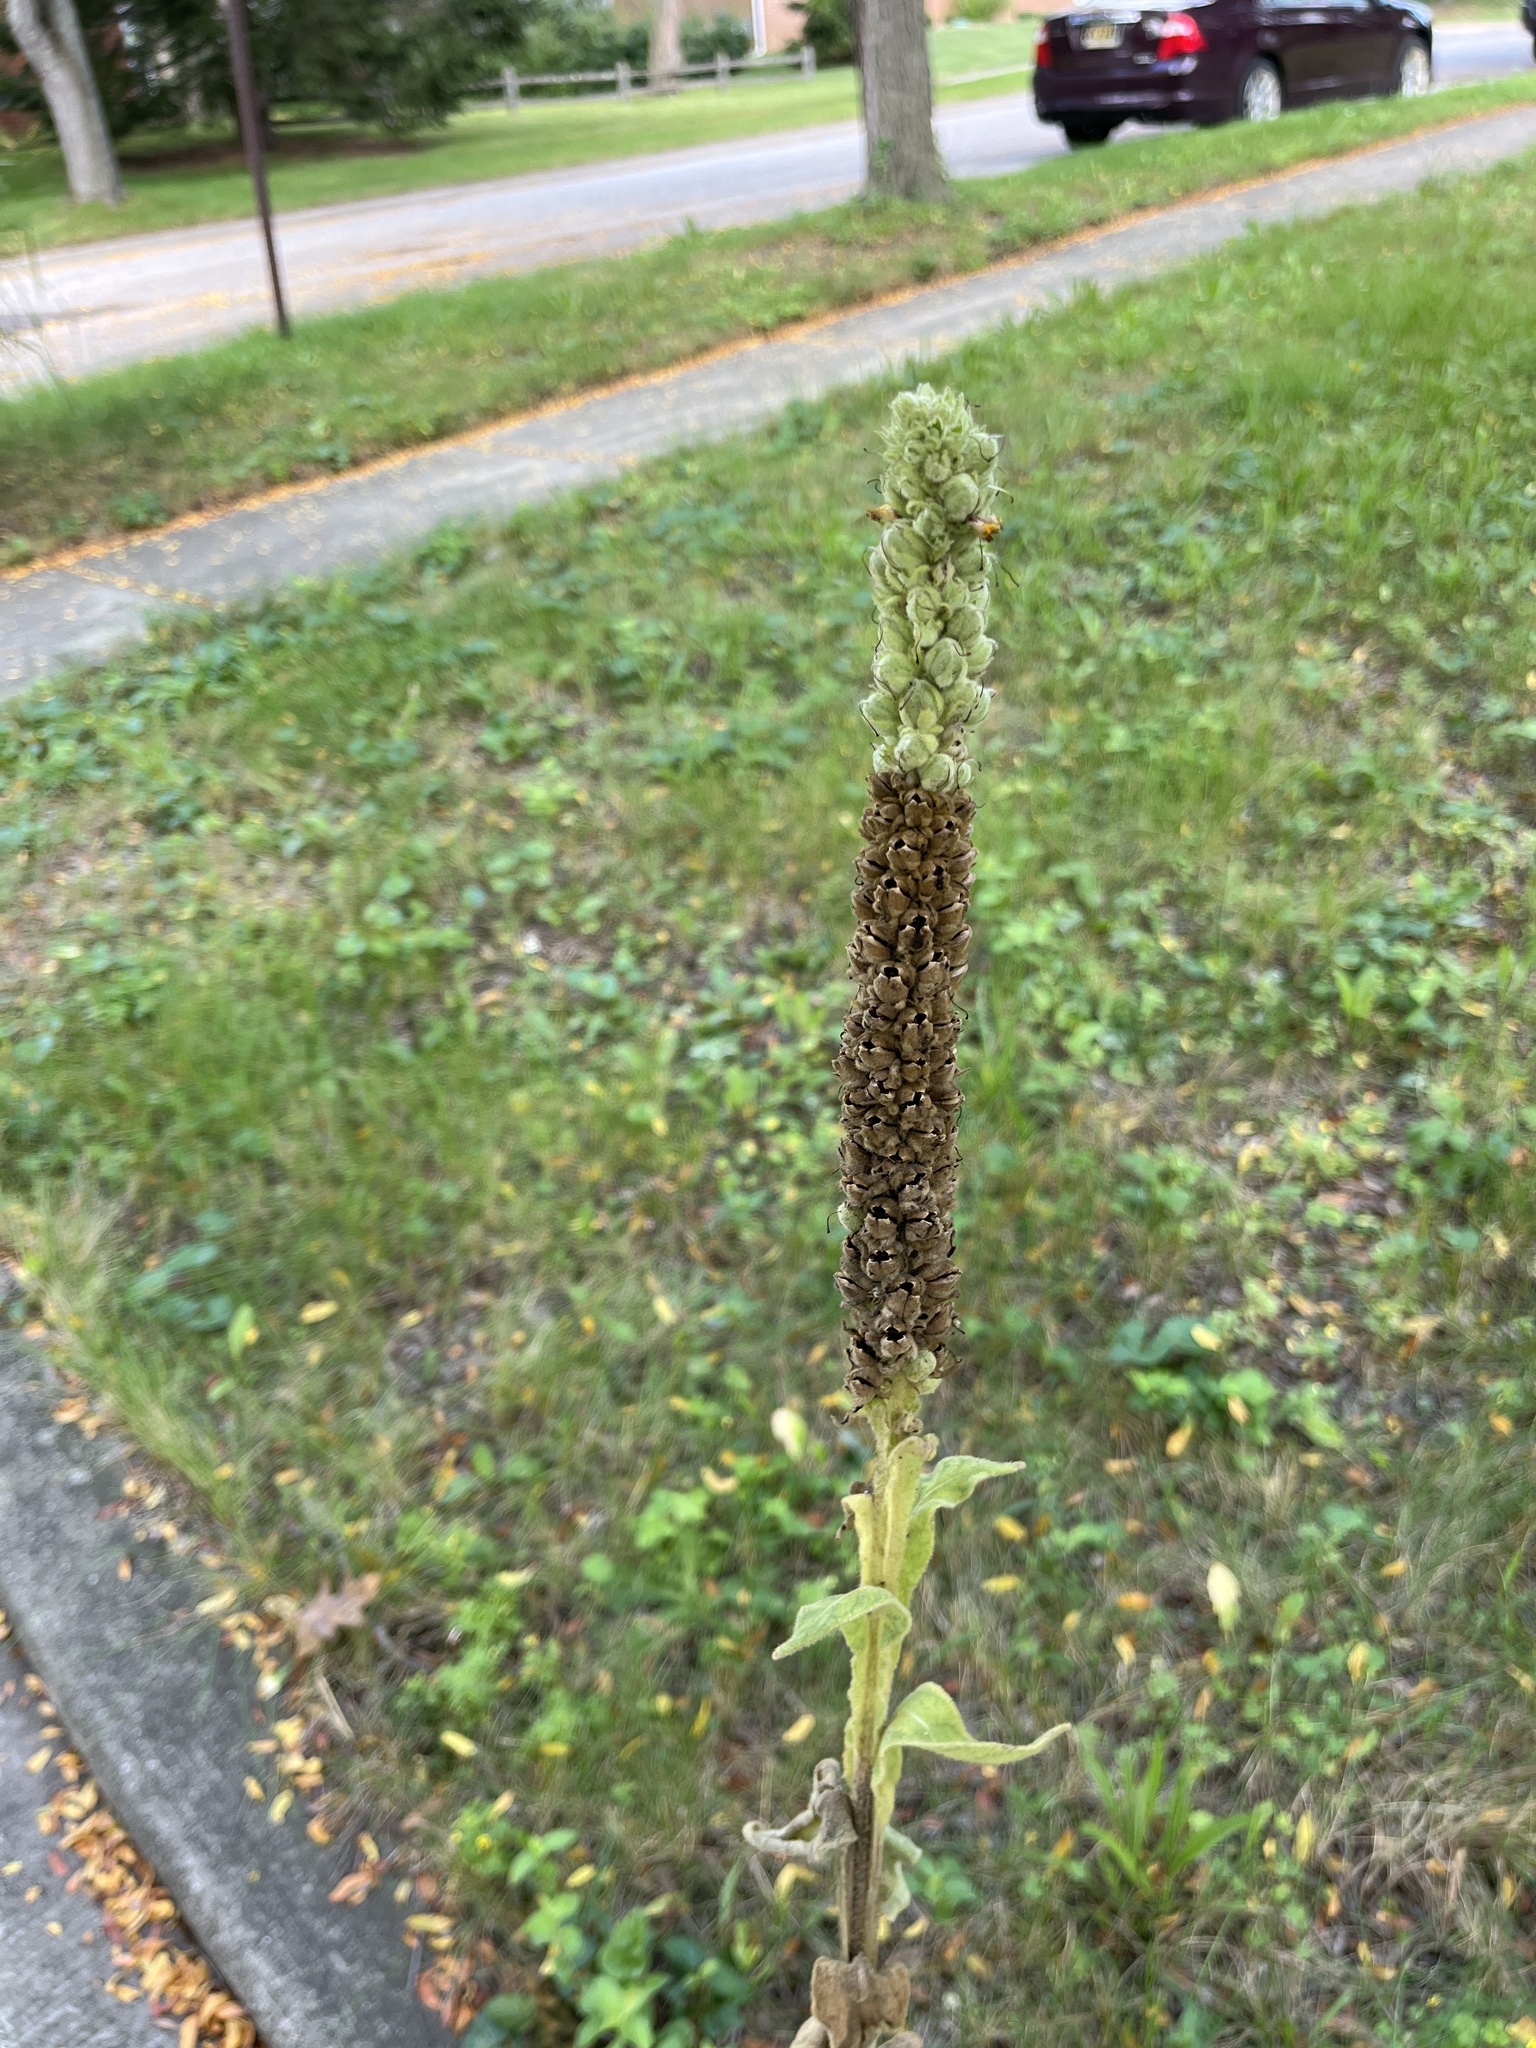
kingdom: Plantae
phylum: Tracheophyta
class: Magnoliopsida
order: Lamiales
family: Scrophulariaceae
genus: Verbascum
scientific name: Verbascum thapsus
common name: Common mullein
